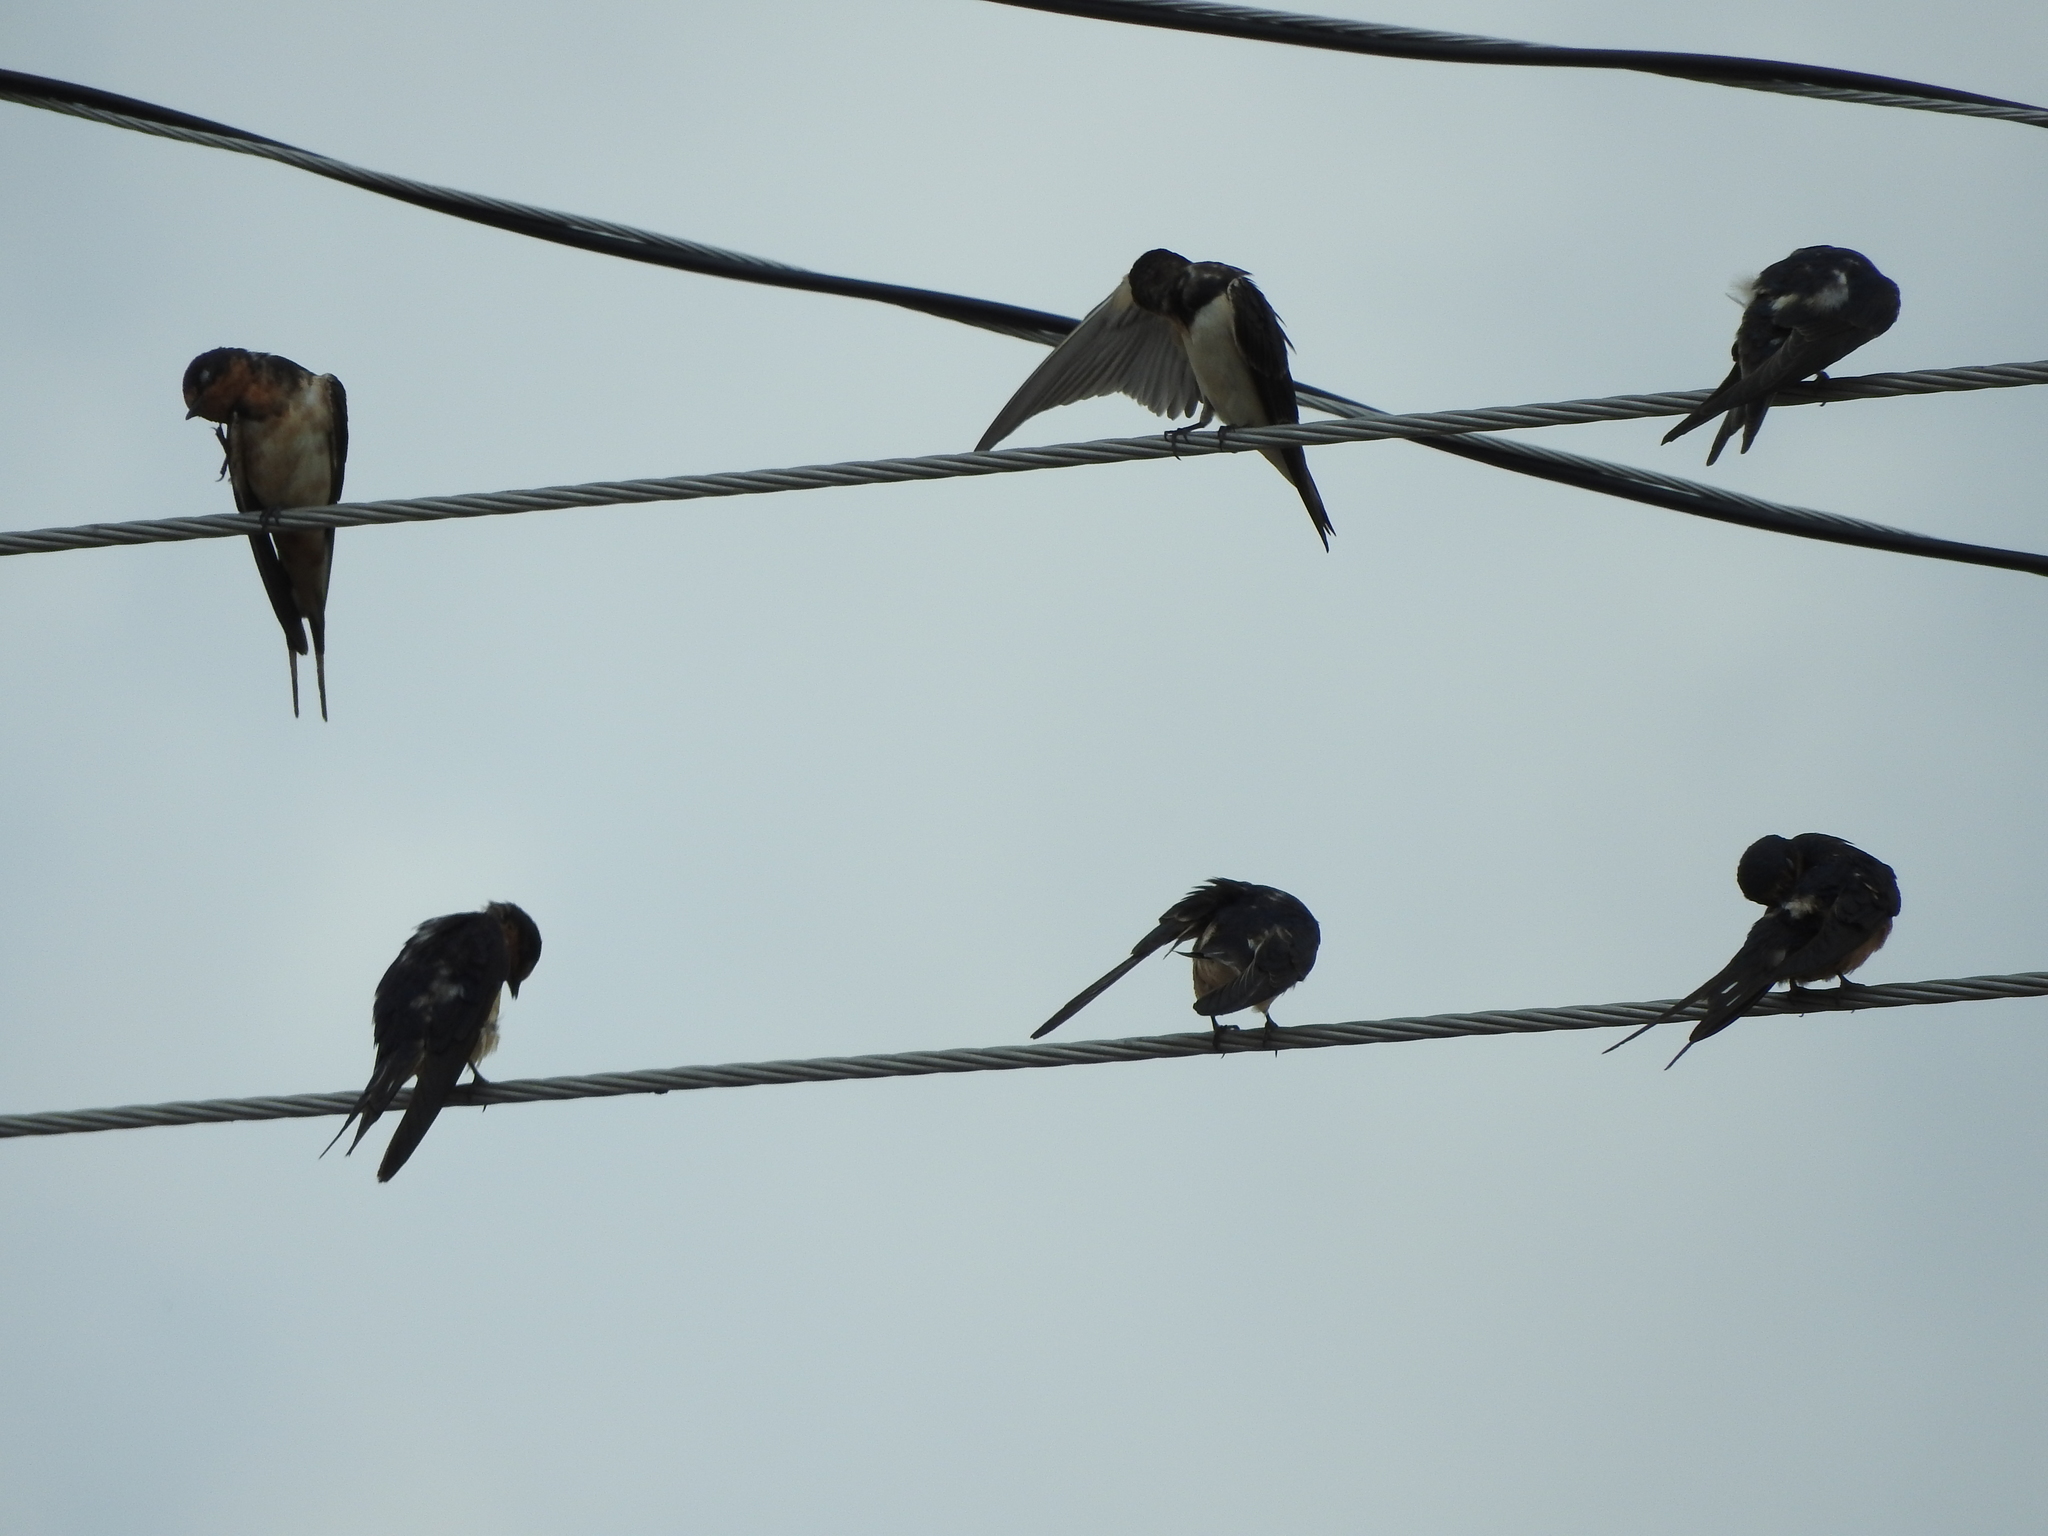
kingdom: Animalia
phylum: Chordata
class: Aves
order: Passeriformes
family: Hirundinidae
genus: Hirundo
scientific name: Hirundo rustica
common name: Barn swallow
